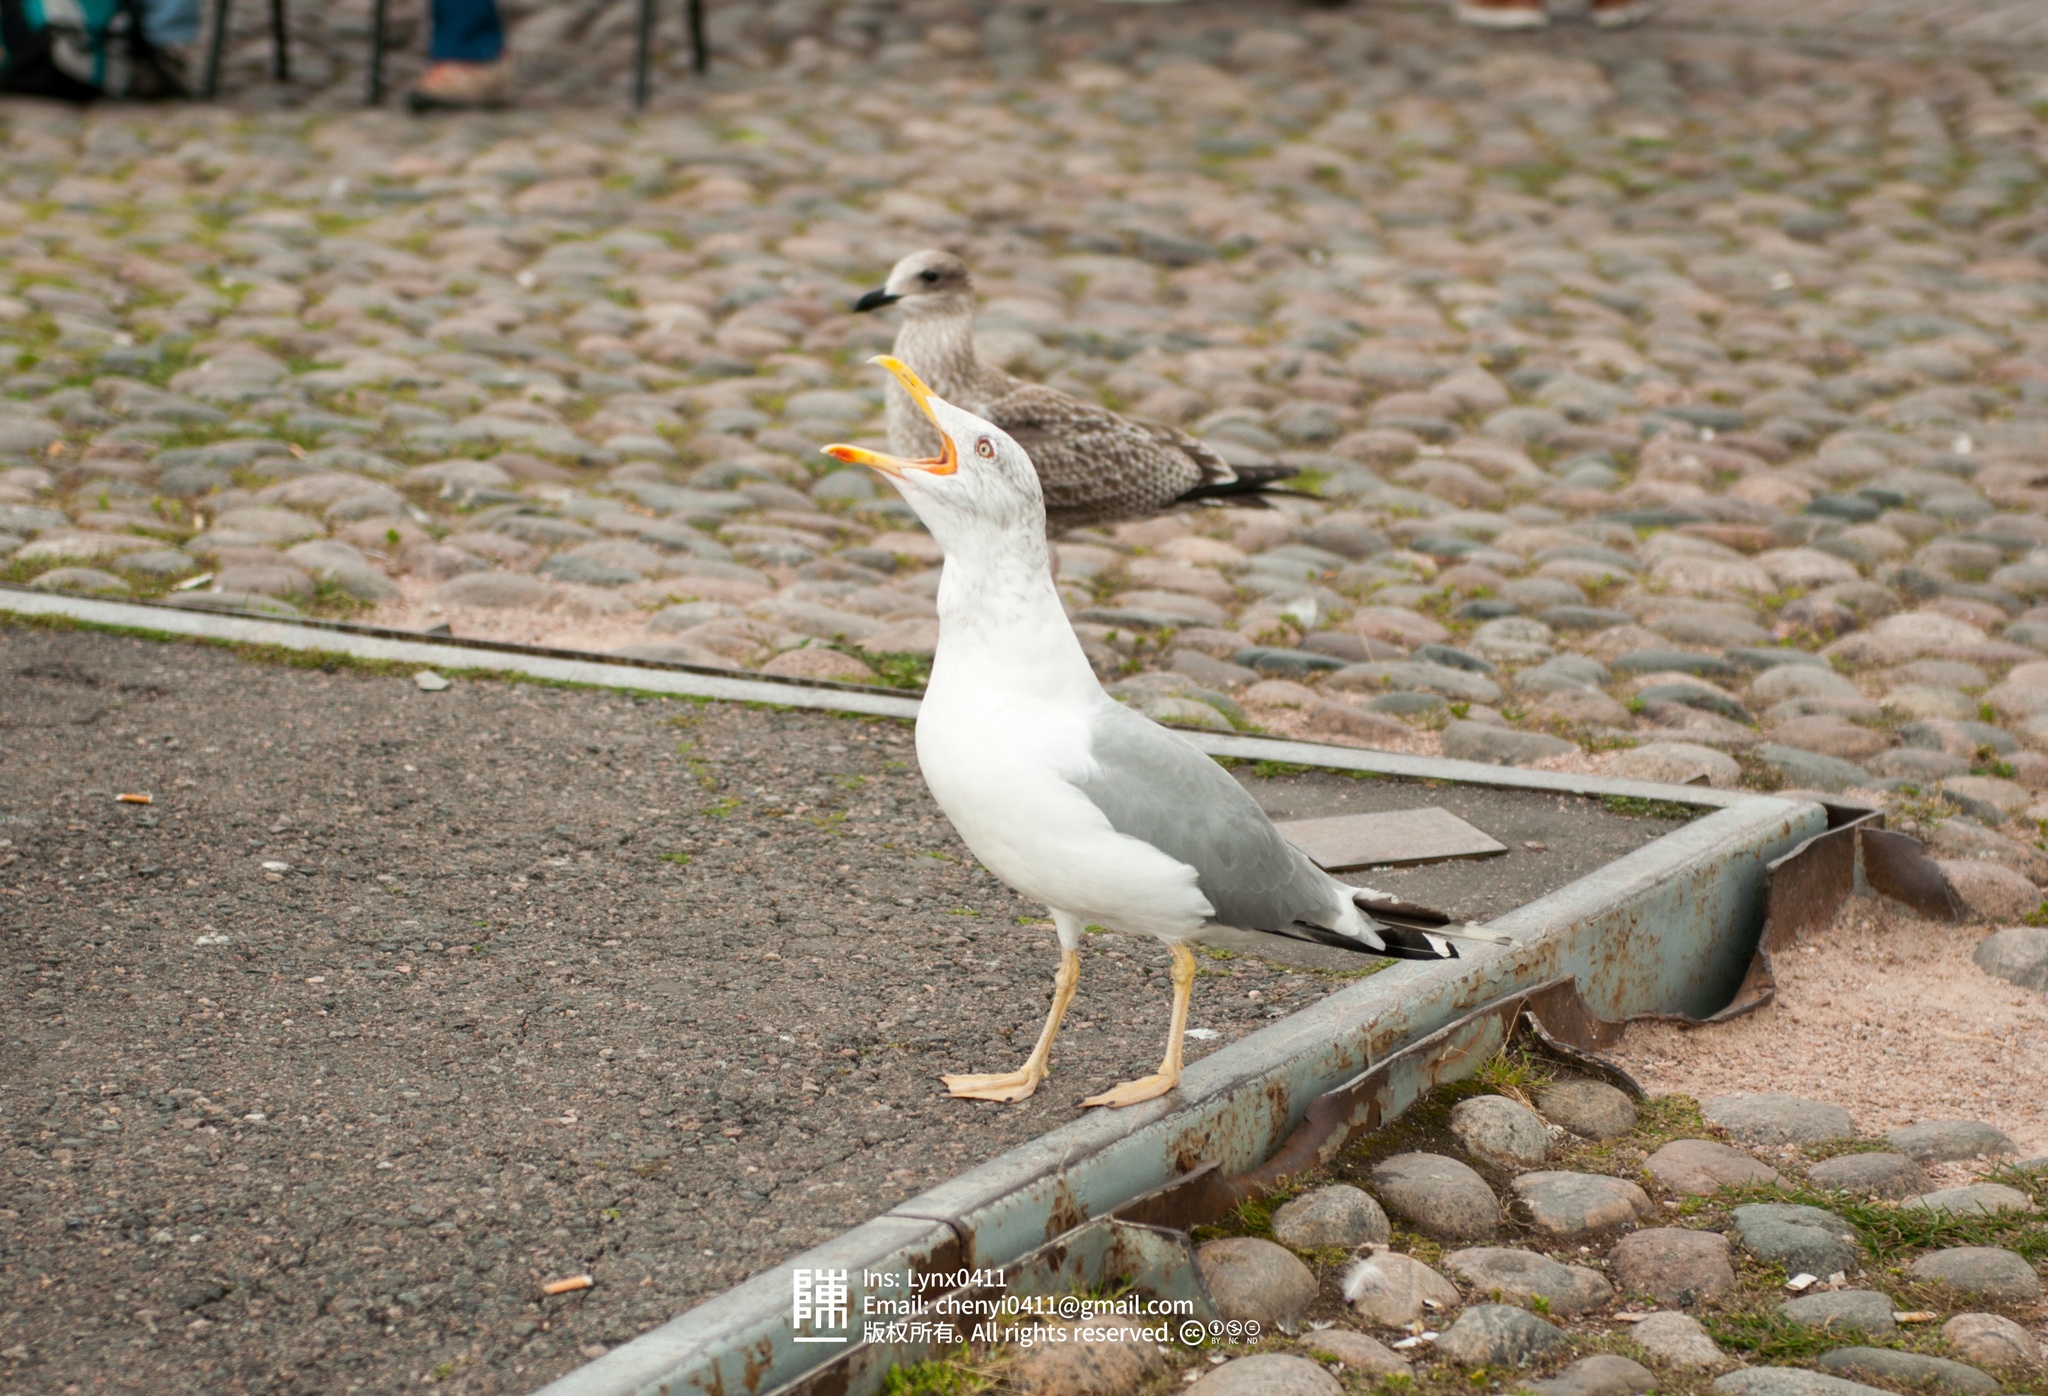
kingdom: Animalia
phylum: Chordata
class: Aves
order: Charadriiformes
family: Laridae
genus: Larus
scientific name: Larus argentatus
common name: Herring gull
